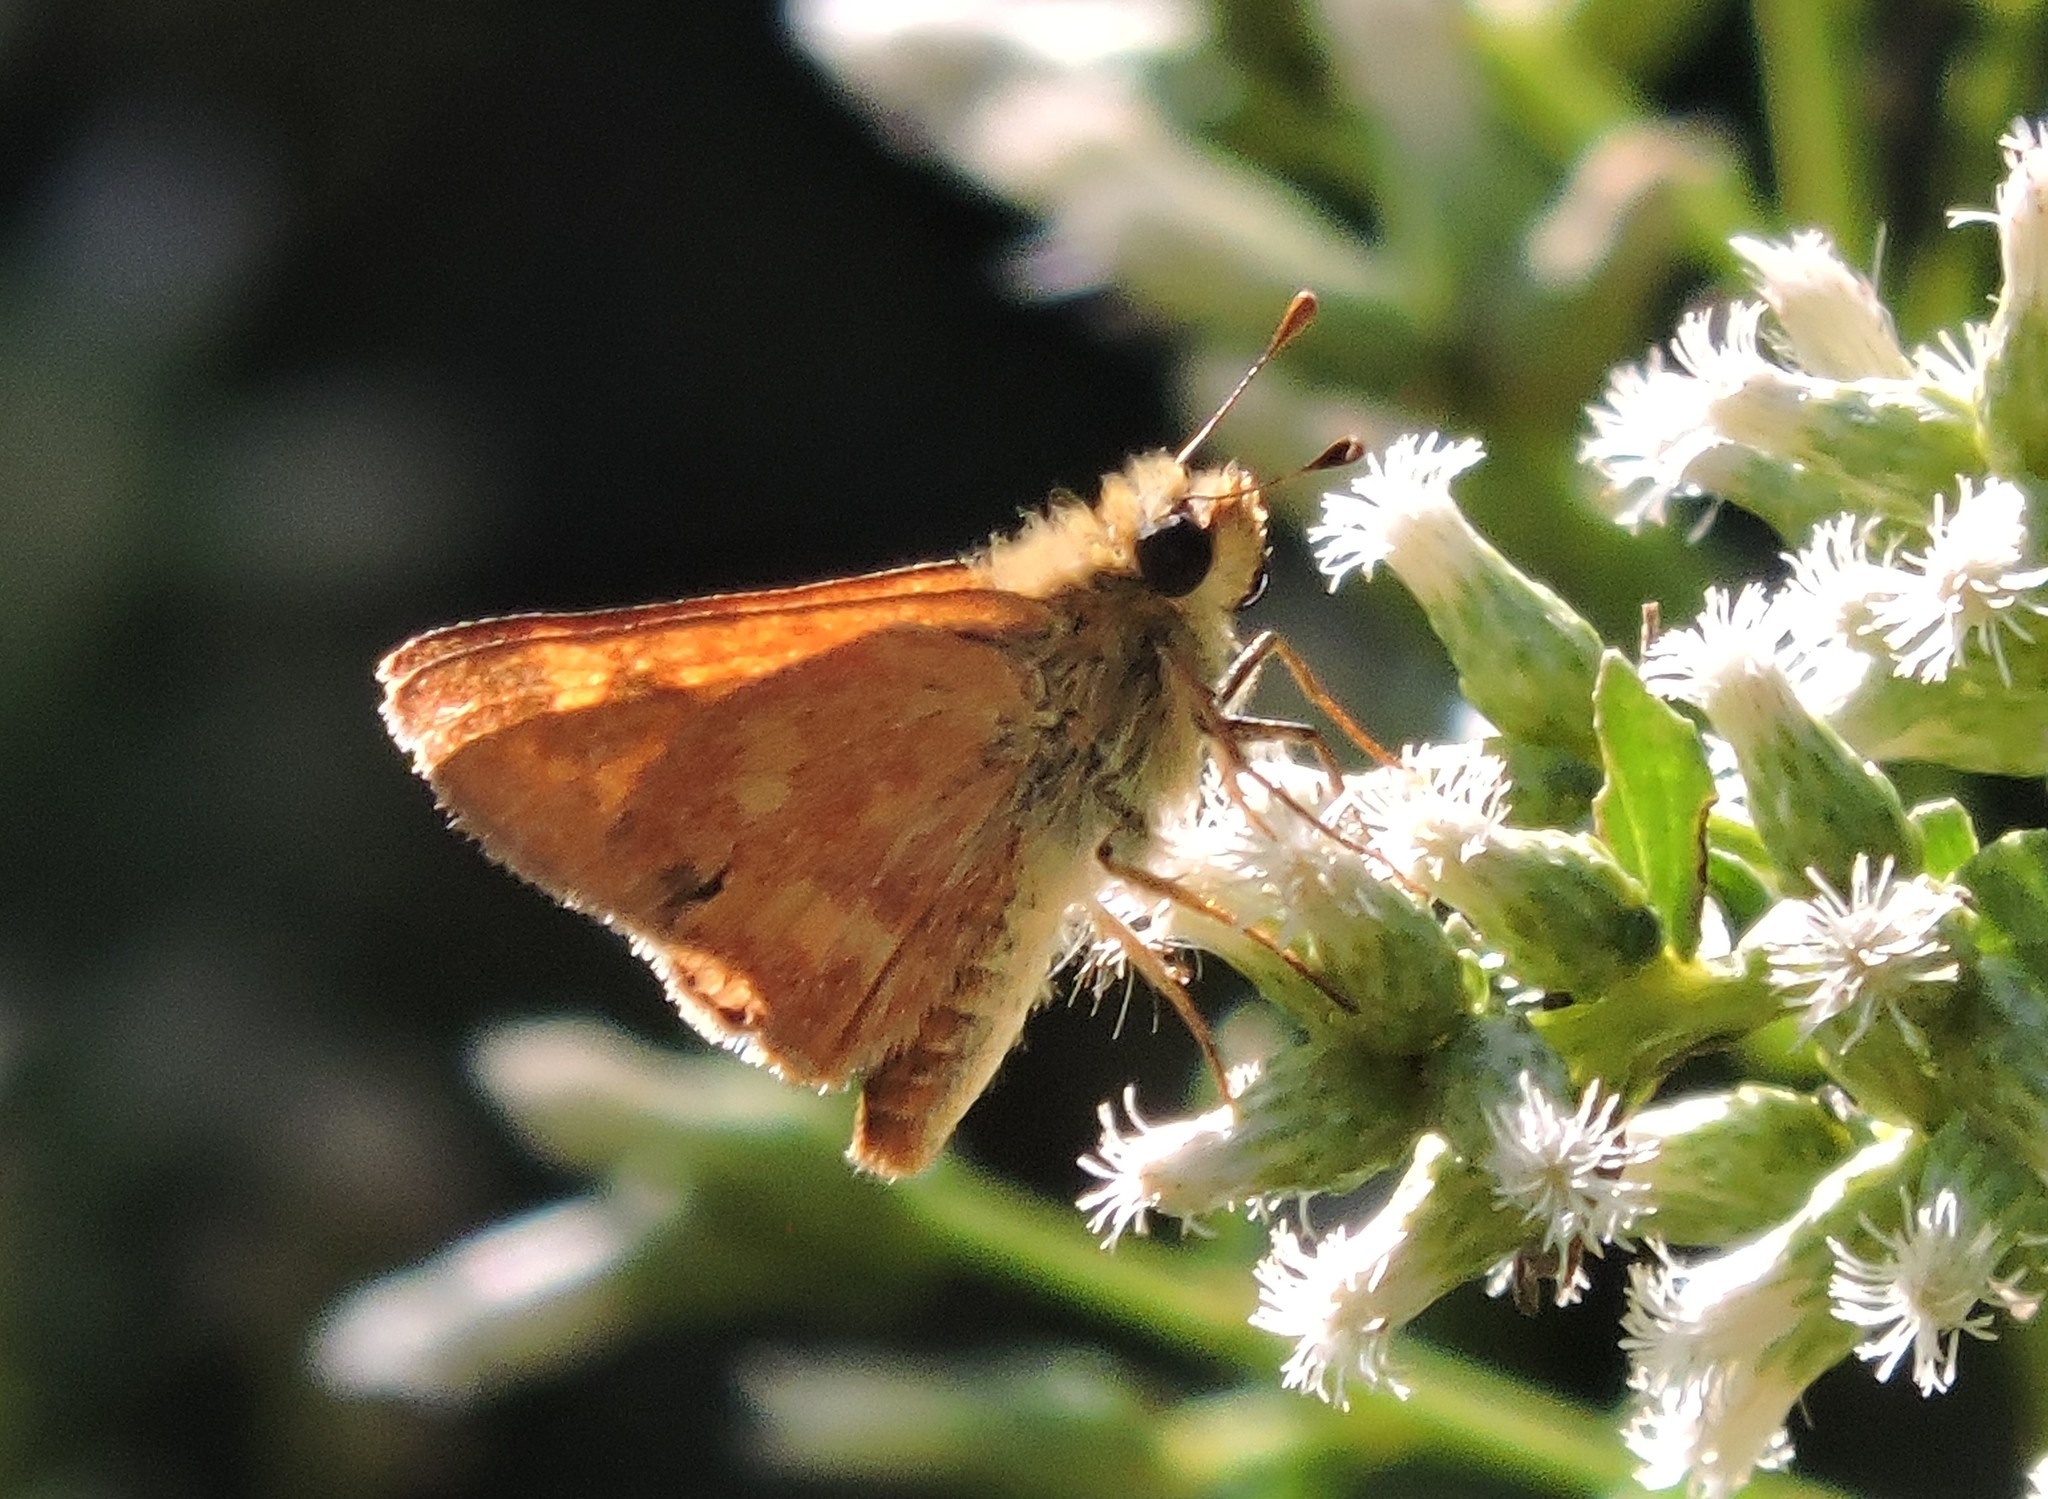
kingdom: Animalia
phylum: Arthropoda
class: Insecta
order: Lepidoptera
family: Hesperiidae
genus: Ochlodes
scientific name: Ochlodes sylvanoides
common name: Woodland skipper
